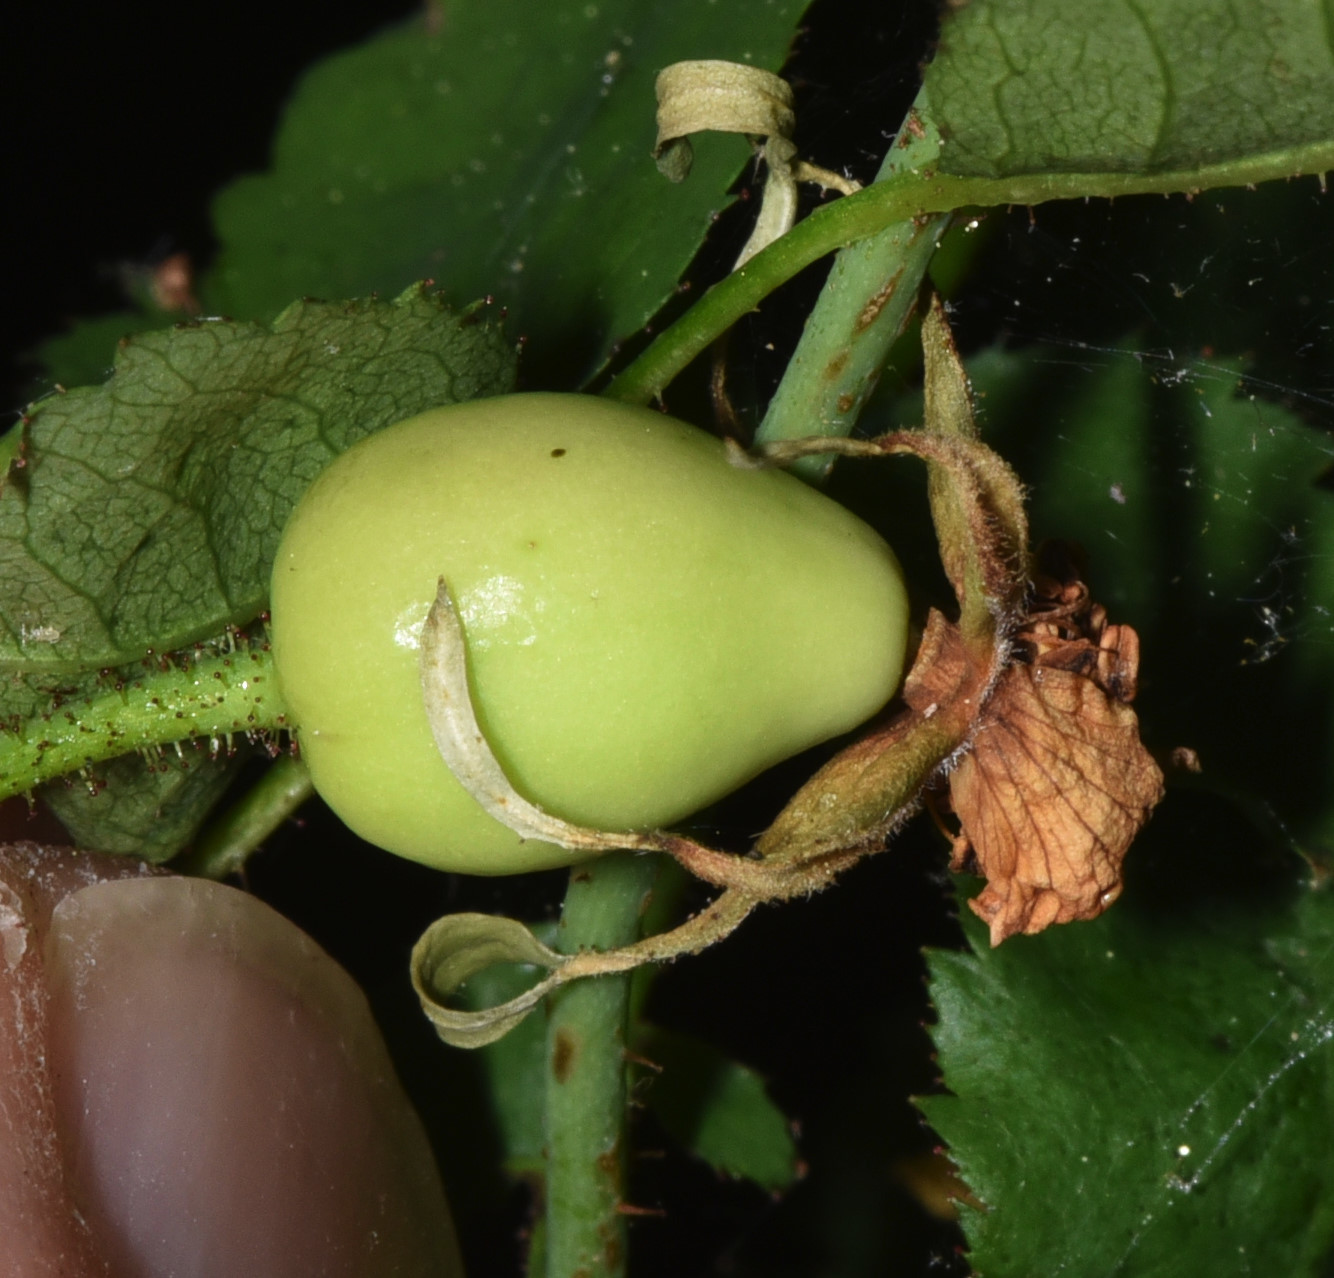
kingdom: Plantae
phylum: Tracheophyta
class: Magnoliopsida
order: Rosales
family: Rosaceae
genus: Rosa
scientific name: Rosa gymnocarpa
